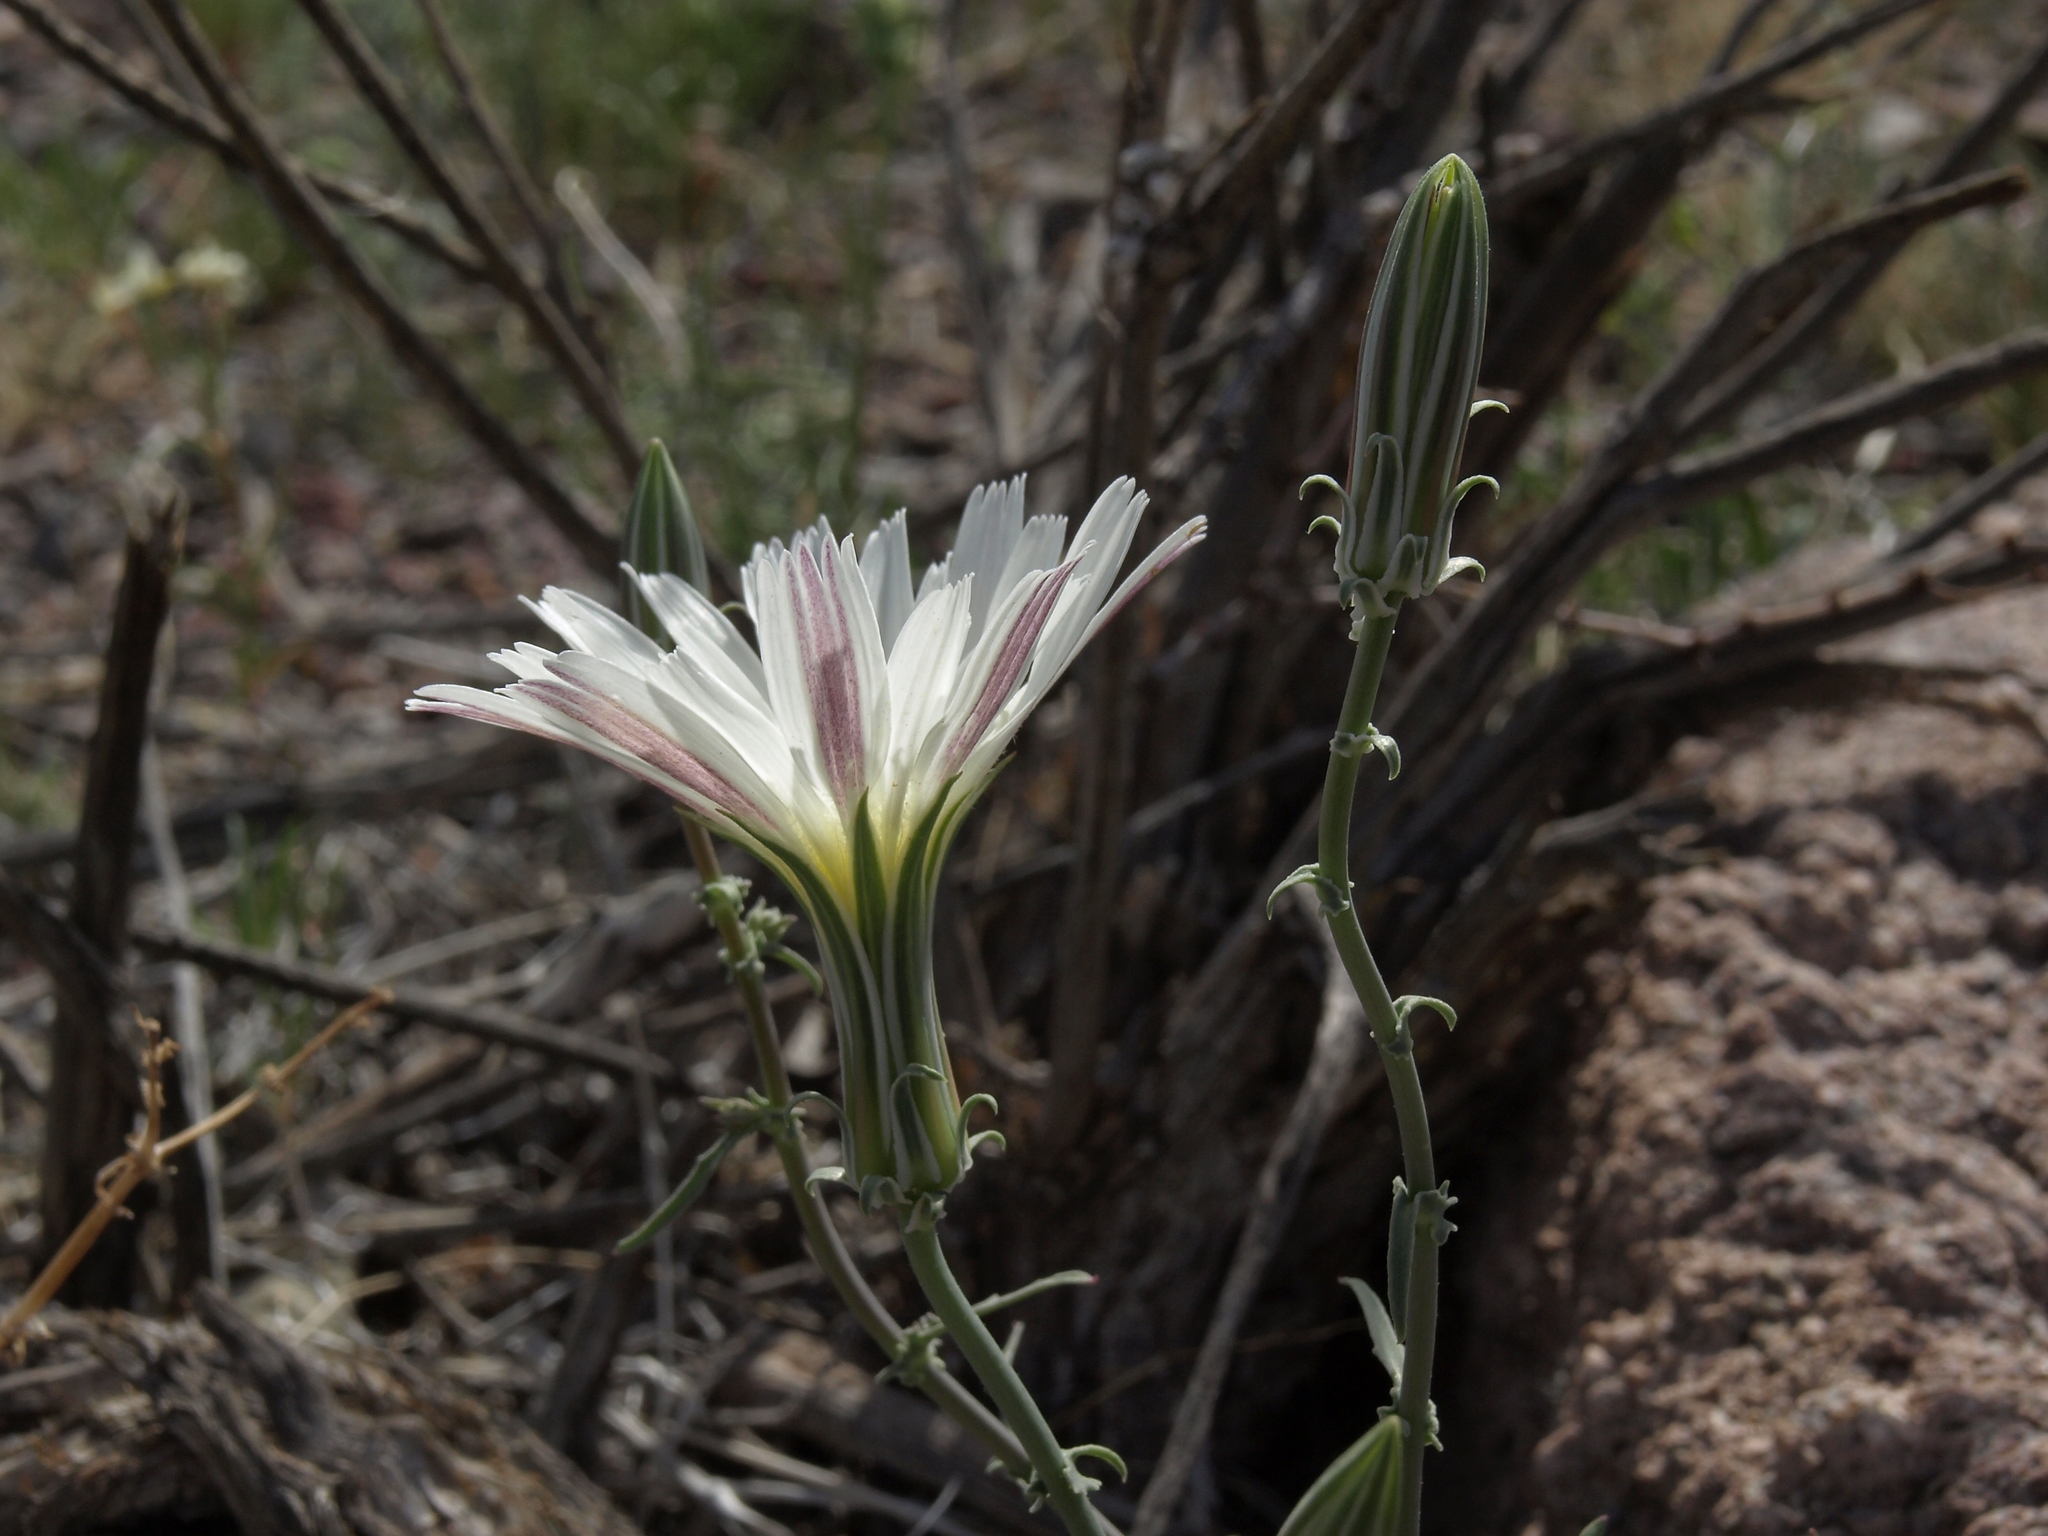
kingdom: Plantae
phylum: Tracheophyta
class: Magnoliopsida
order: Asterales
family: Asteraceae
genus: Rafinesquia
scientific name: Rafinesquia neomexicana
